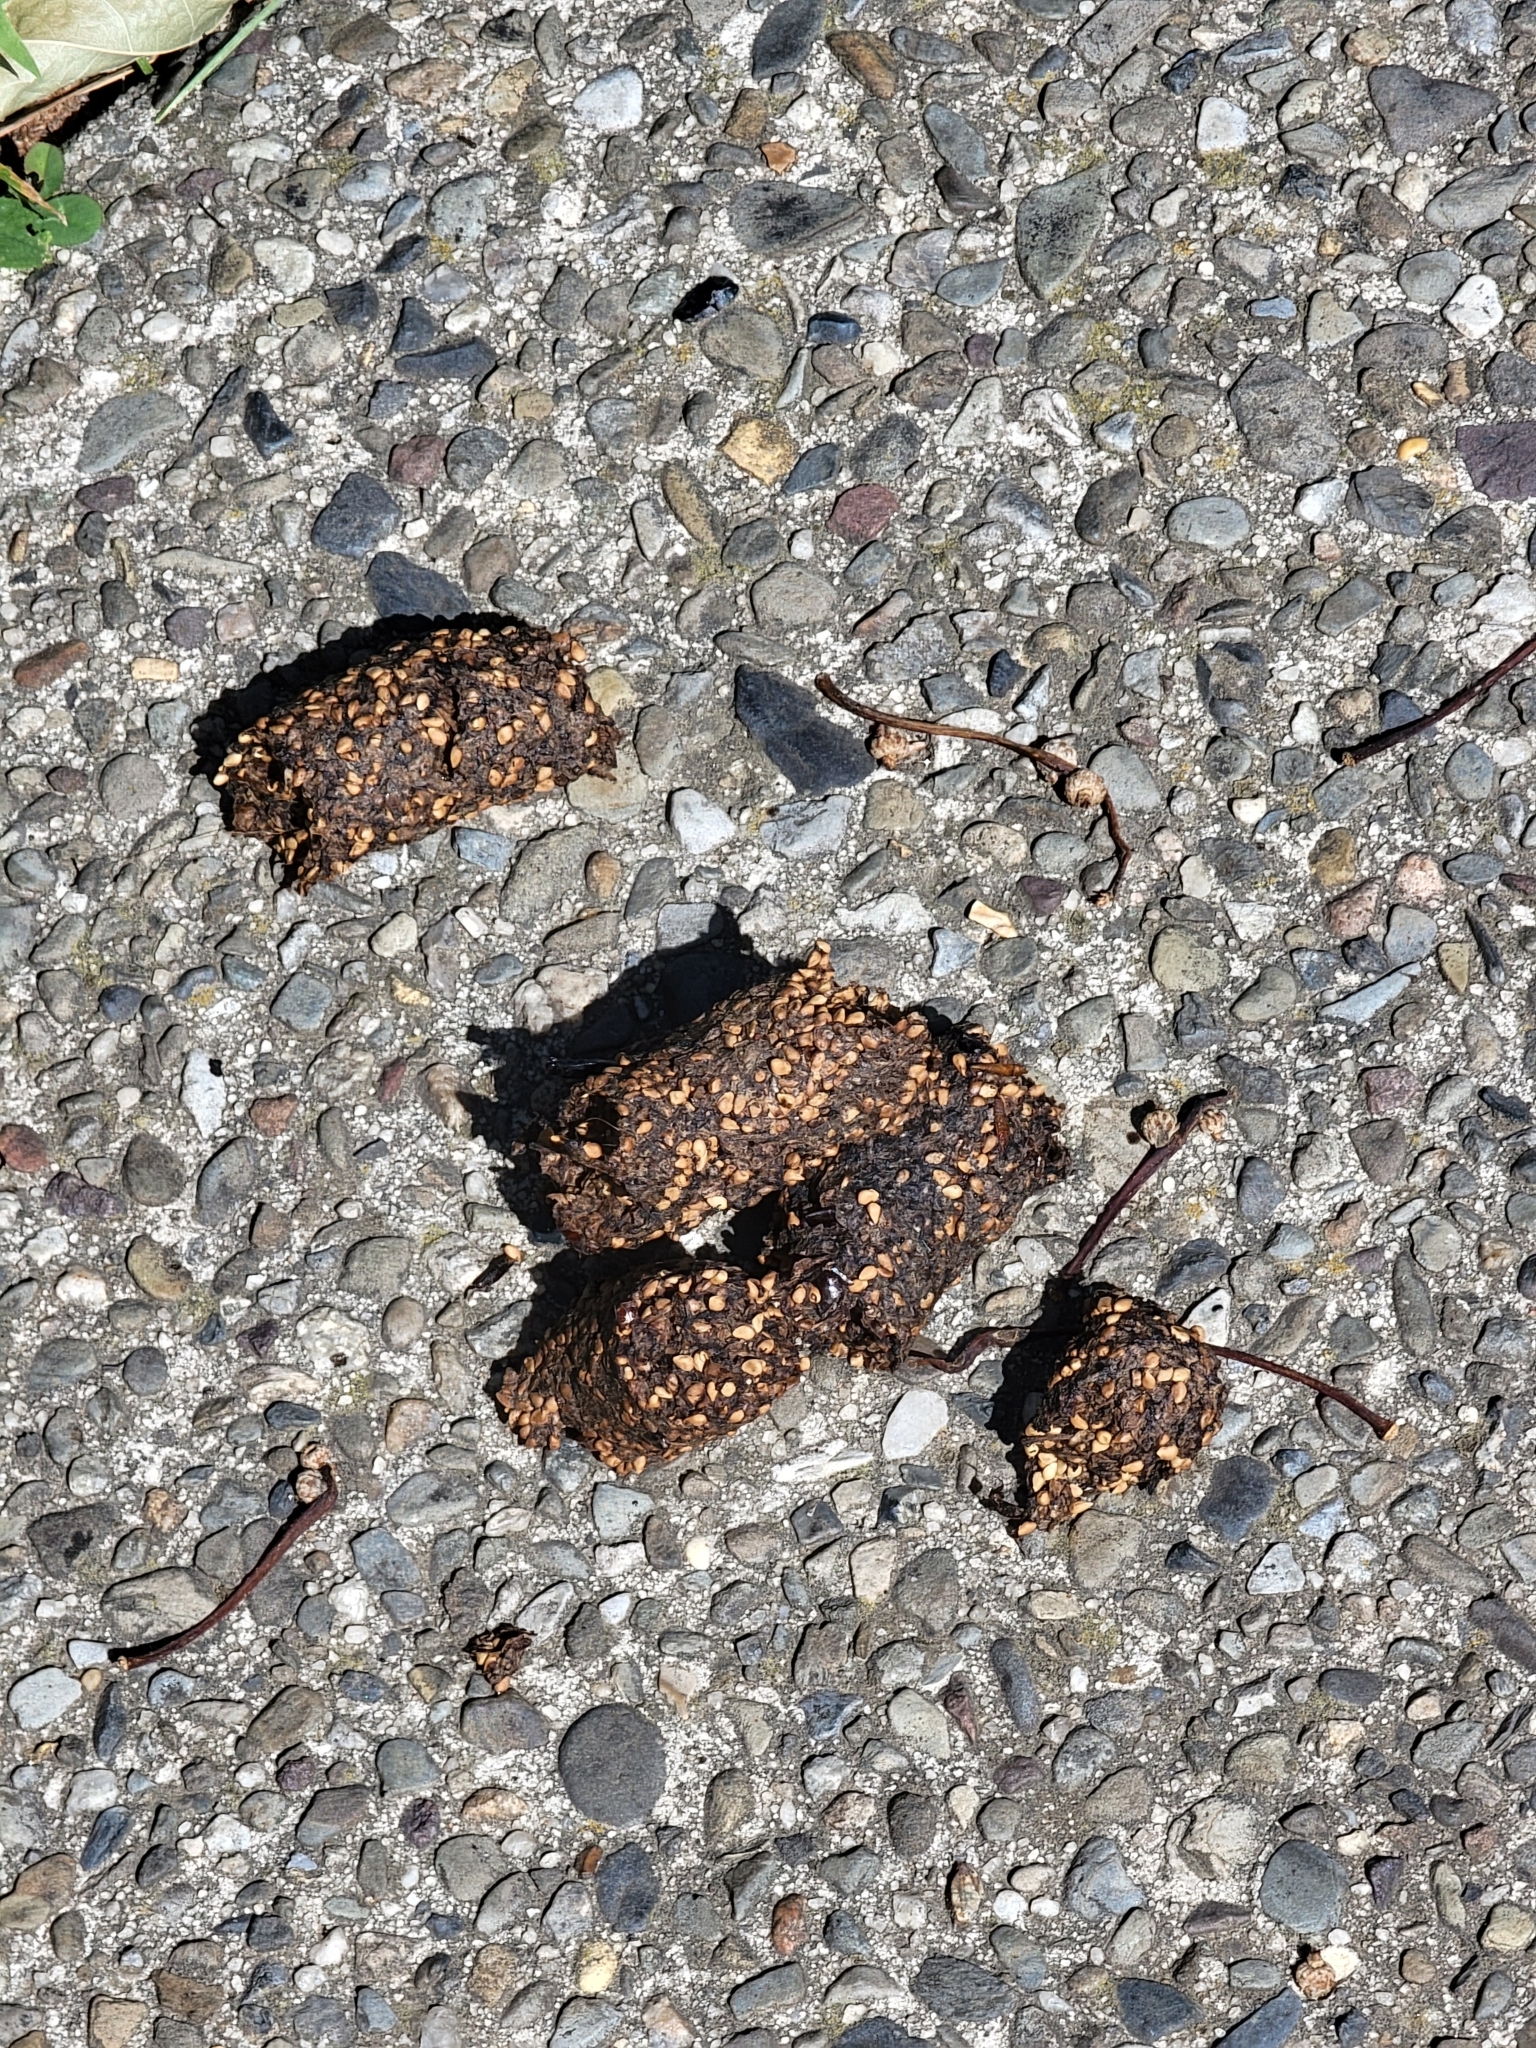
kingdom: Animalia
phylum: Chordata
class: Mammalia
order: Carnivora
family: Procyonidae
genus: Procyon
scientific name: Procyon lotor
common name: Raccoon
